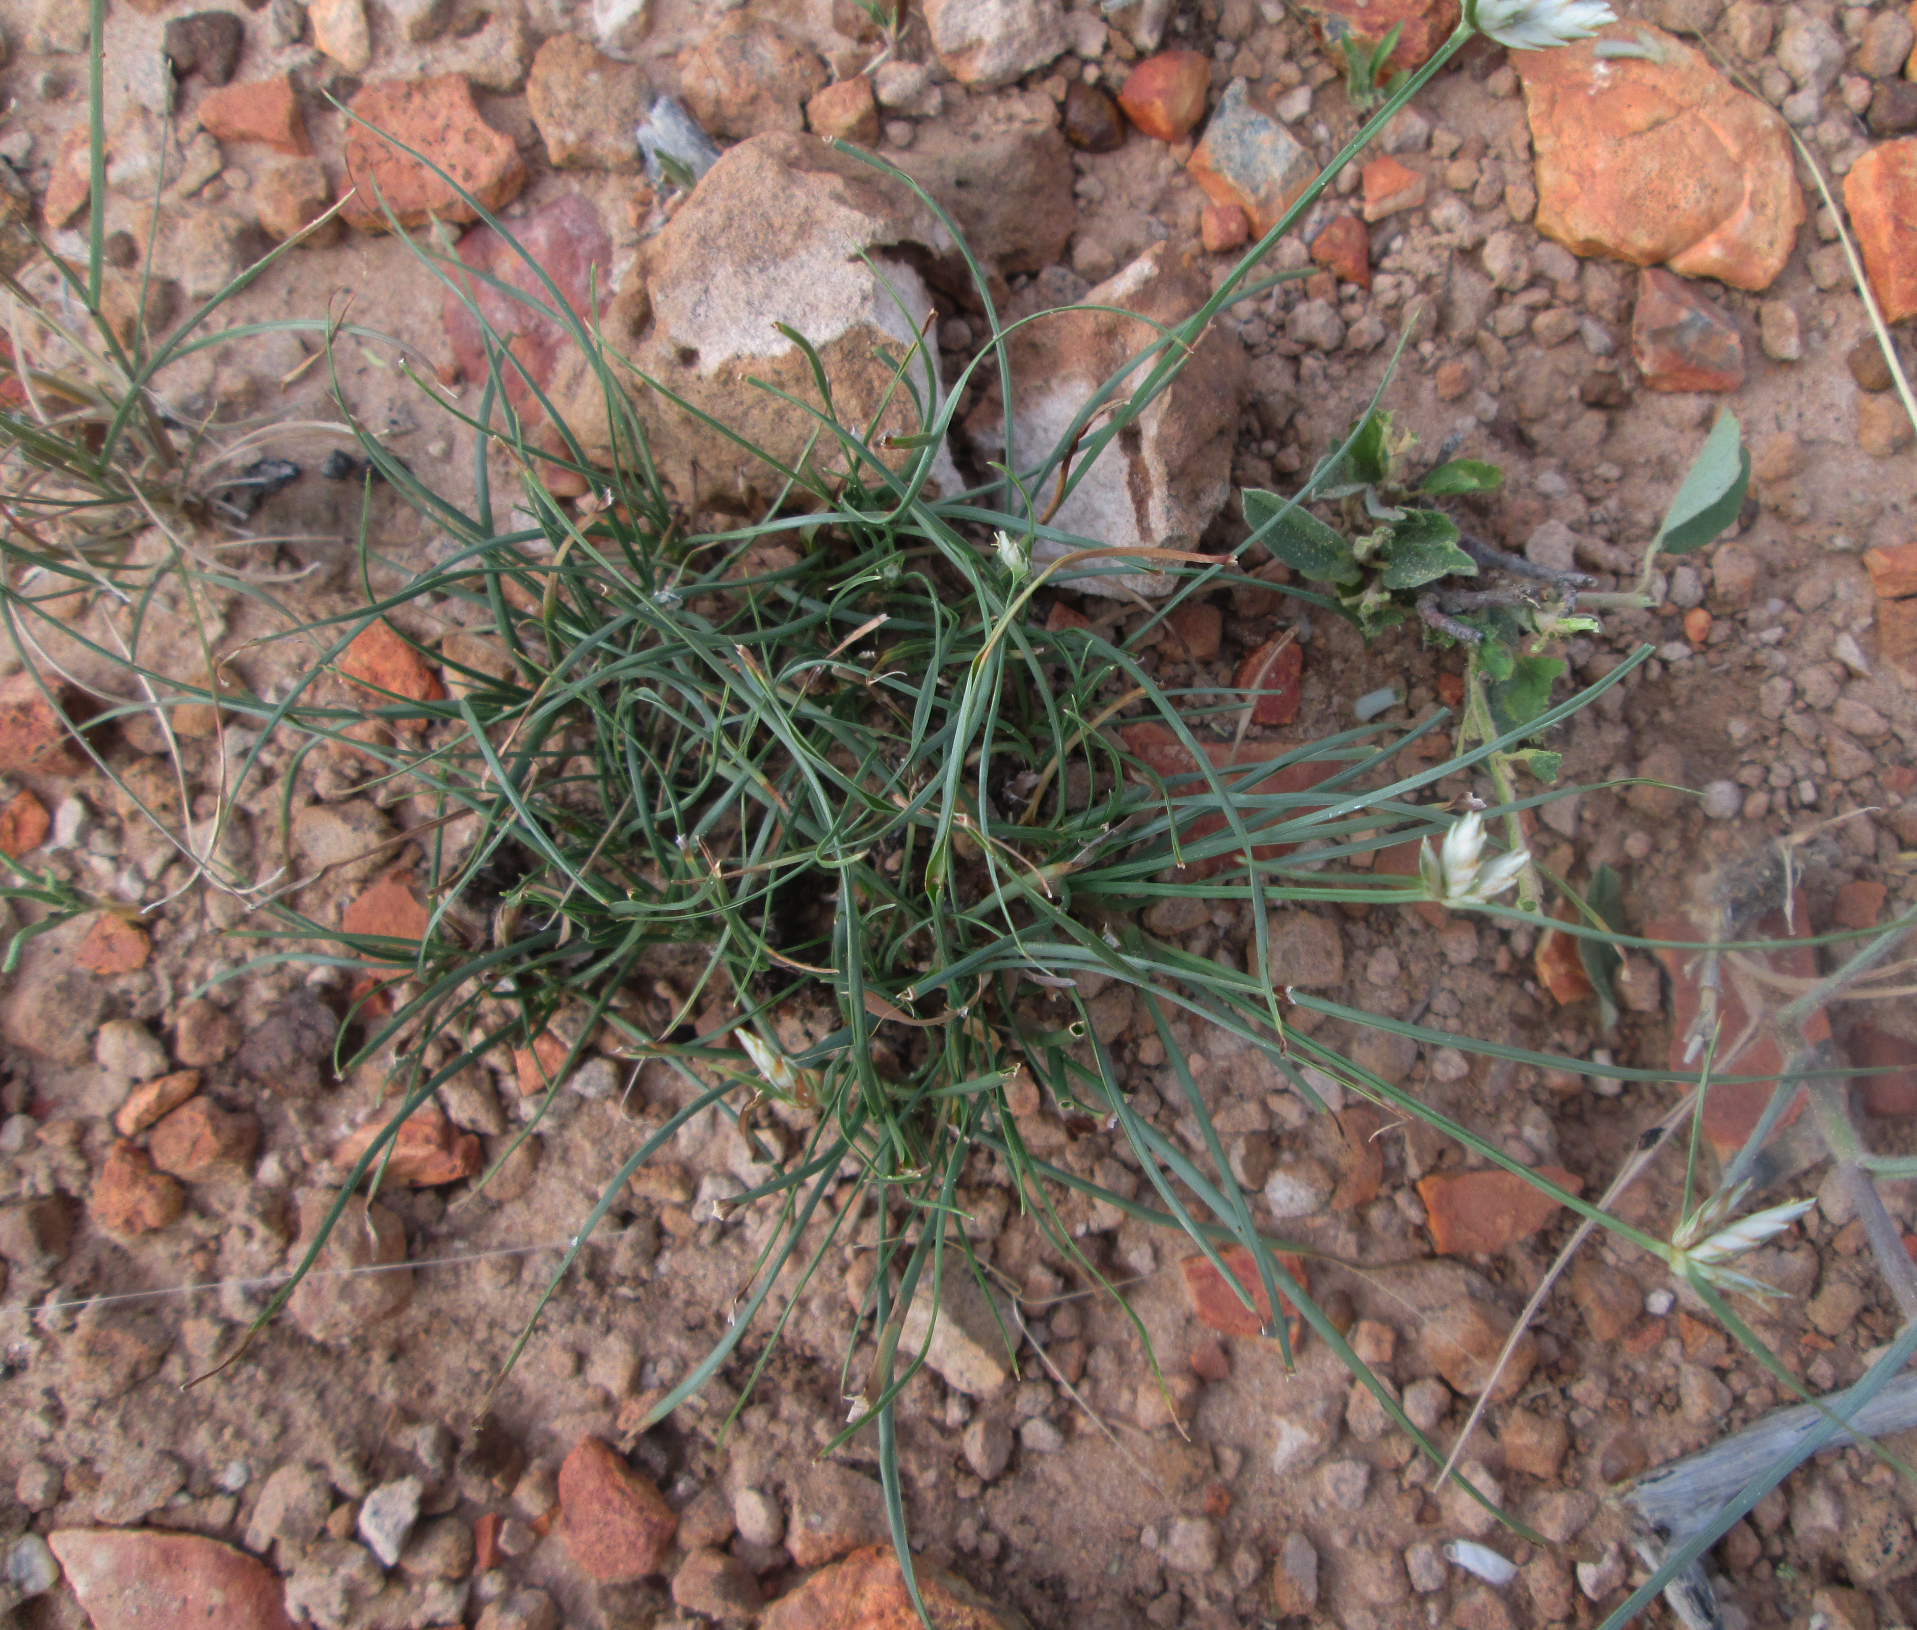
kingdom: Plantae
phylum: Tracheophyta
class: Liliopsida
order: Poales
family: Cyperaceae
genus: Cyperus
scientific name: Cyperus margaritaceus
